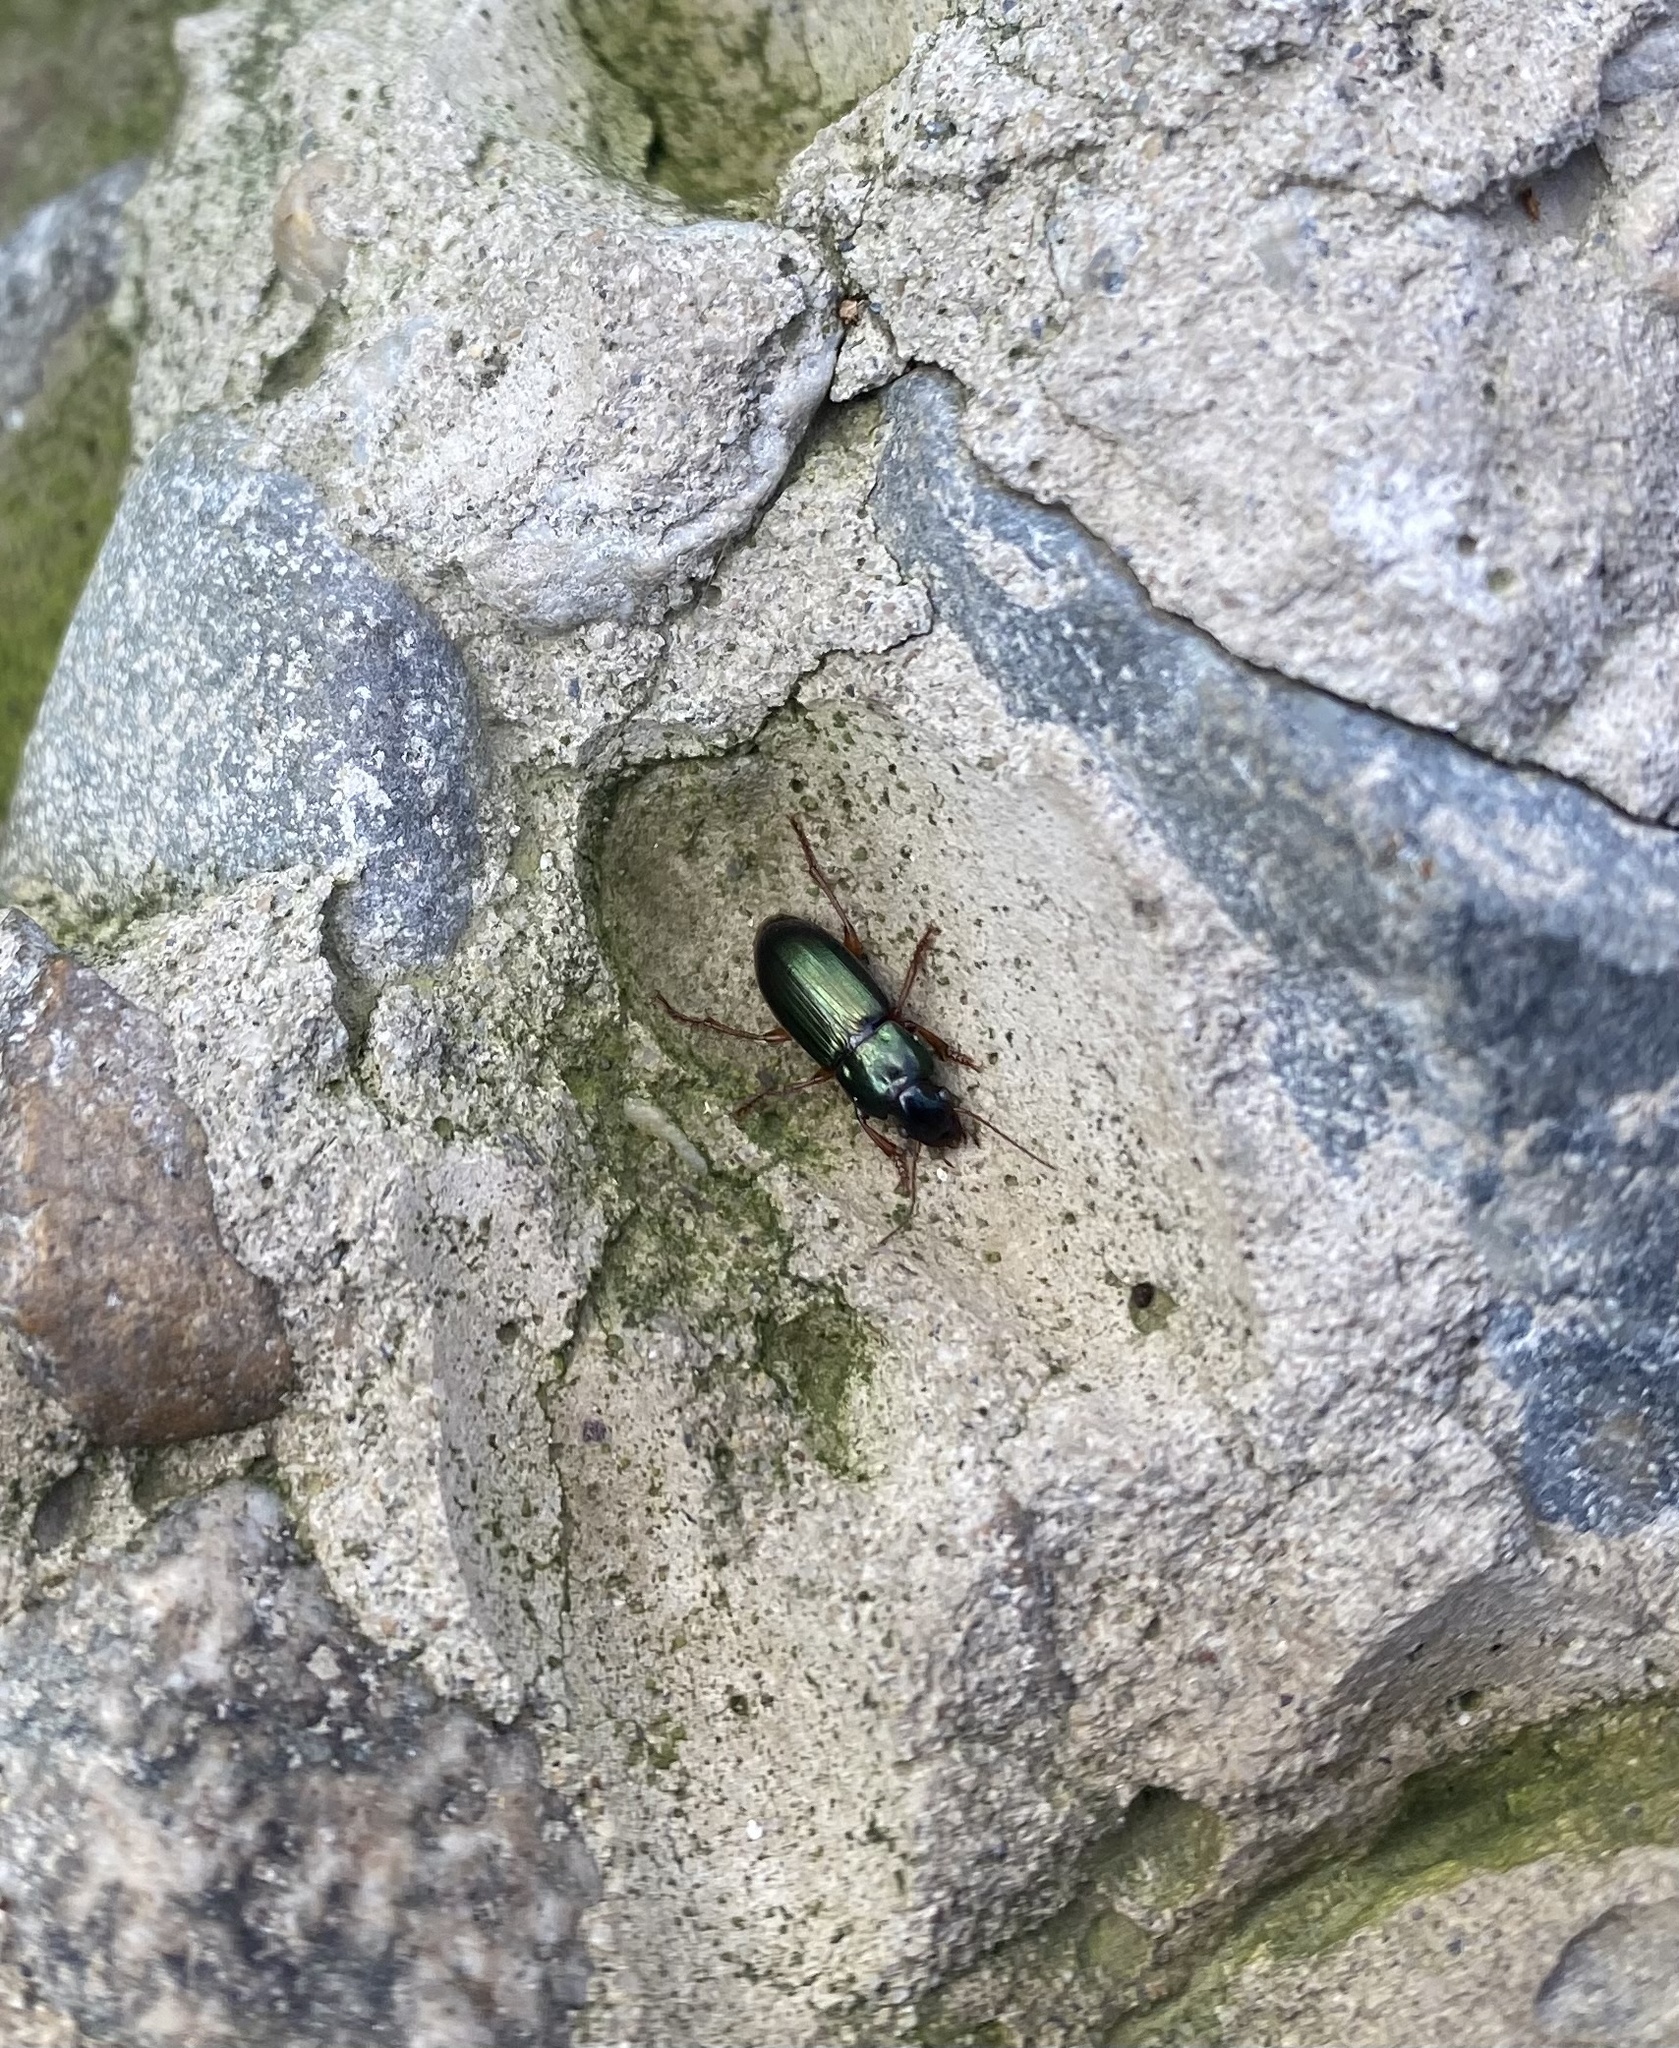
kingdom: Animalia
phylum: Arthropoda
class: Insecta
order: Coleoptera
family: Carabidae
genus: Harpalus
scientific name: Harpalus
